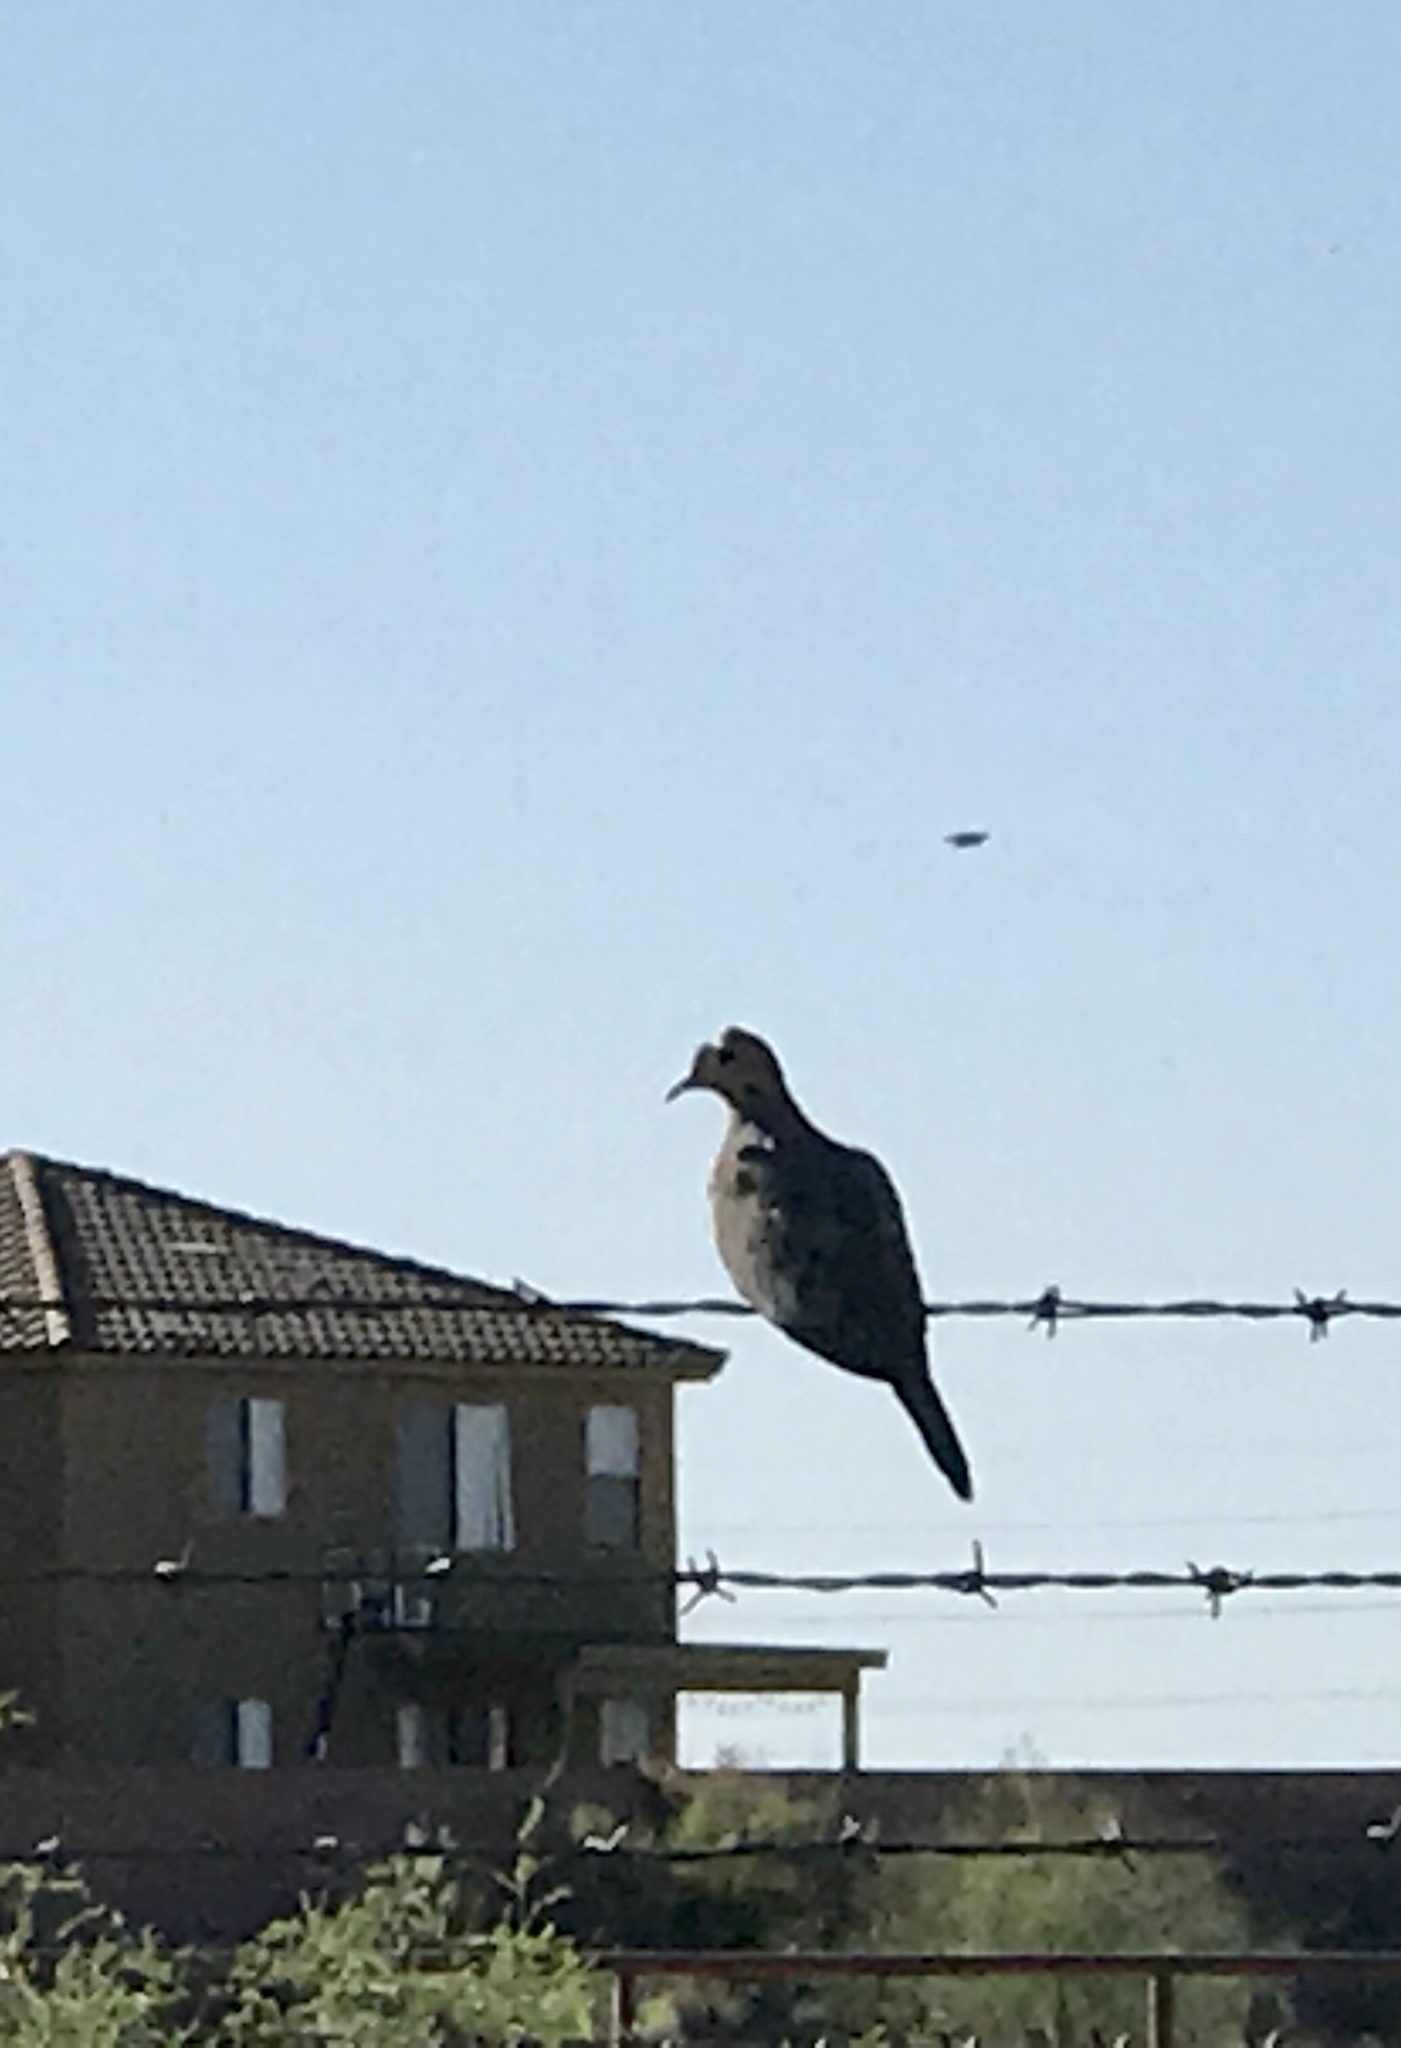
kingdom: Animalia
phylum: Chordata
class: Aves
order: Columbiformes
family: Columbidae
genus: Zenaida
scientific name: Zenaida macroura
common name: Mourning dove
